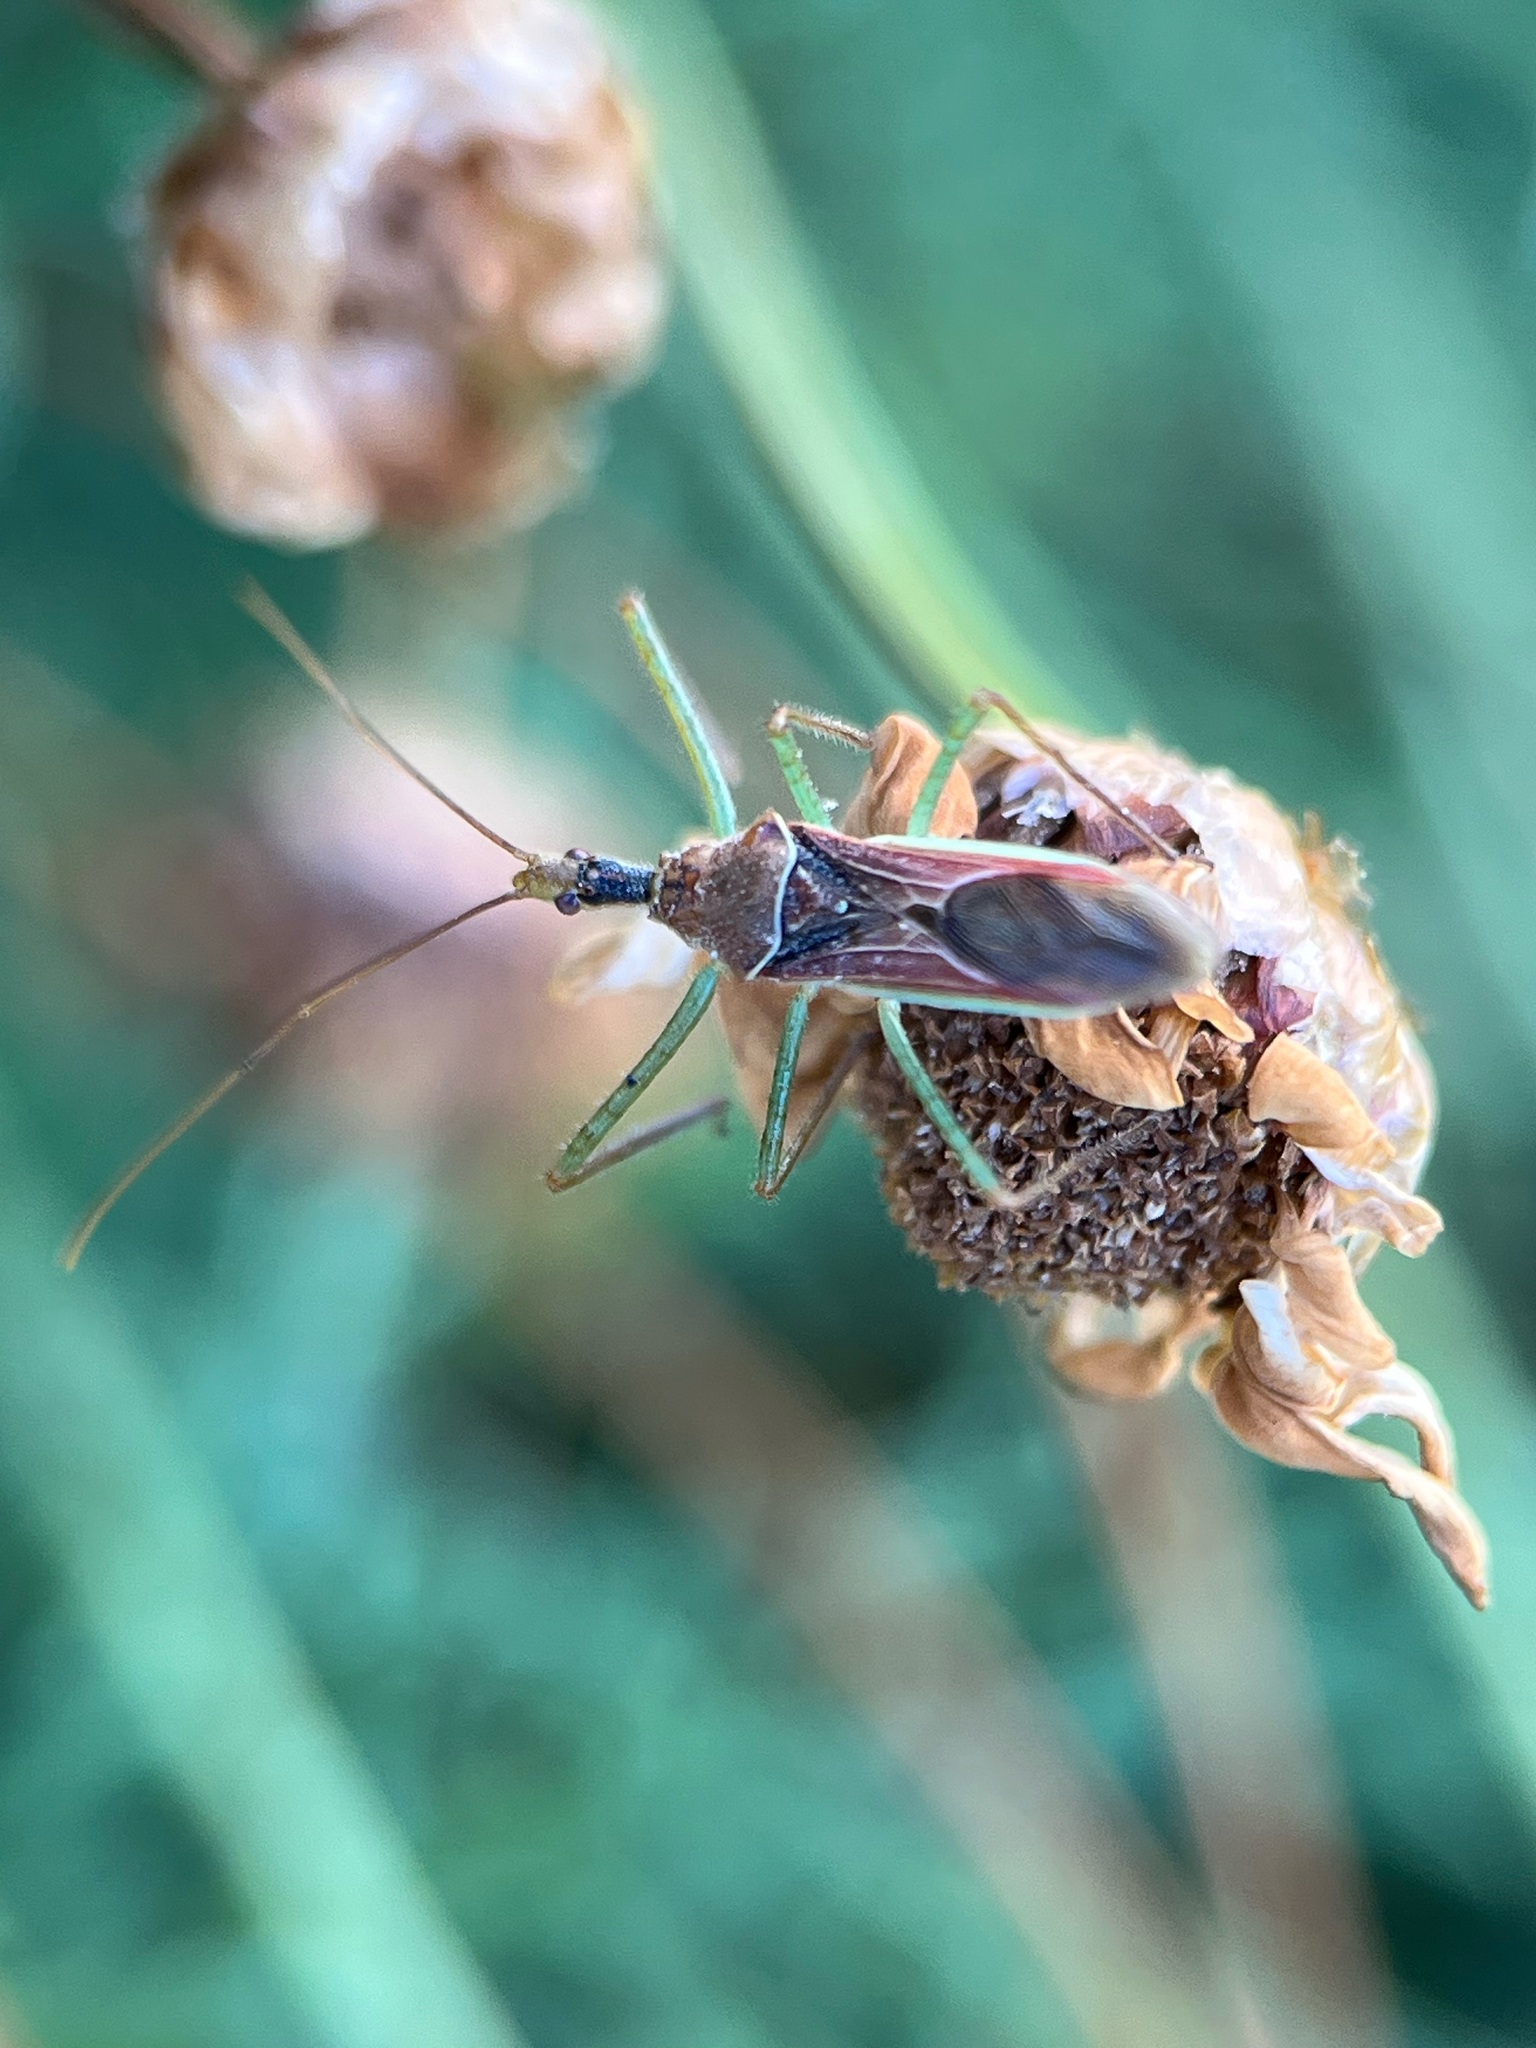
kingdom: Animalia
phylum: Arthropoda
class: Insecta
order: Hemiptera
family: Reduviidae
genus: Zelus
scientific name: Zelus renardii
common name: Assassin bug
